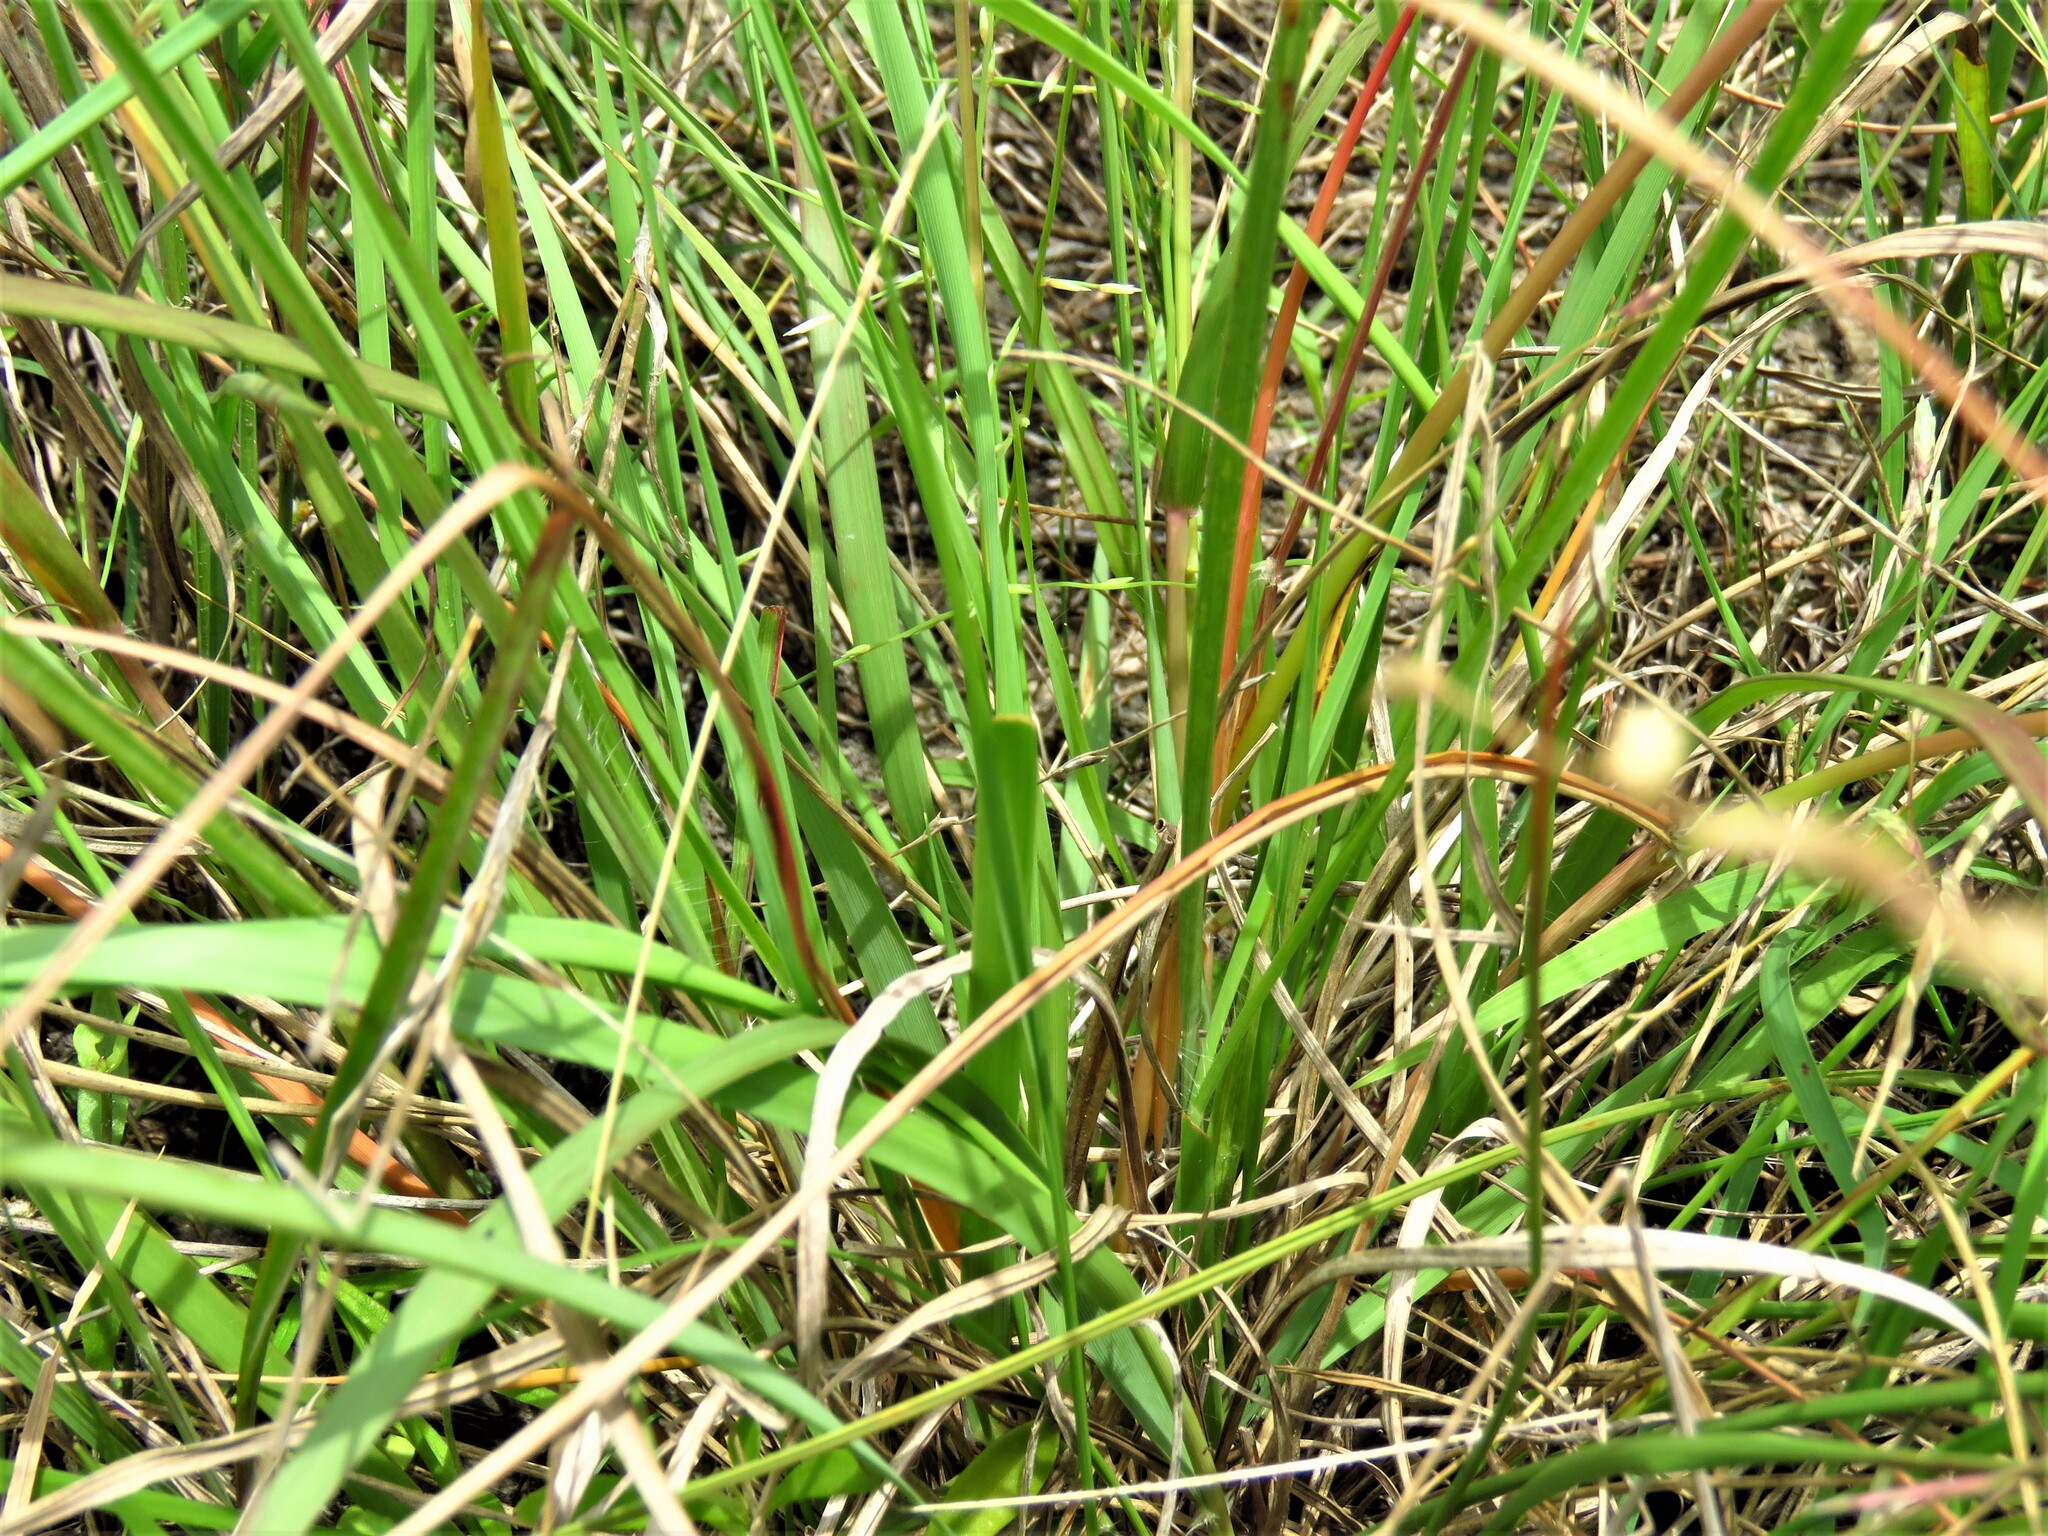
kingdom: Plantae
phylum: Tracheophyta
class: Liliopsida
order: Poales
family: Poaceae
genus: Eragrostis
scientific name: Eragrostis sessilispica
